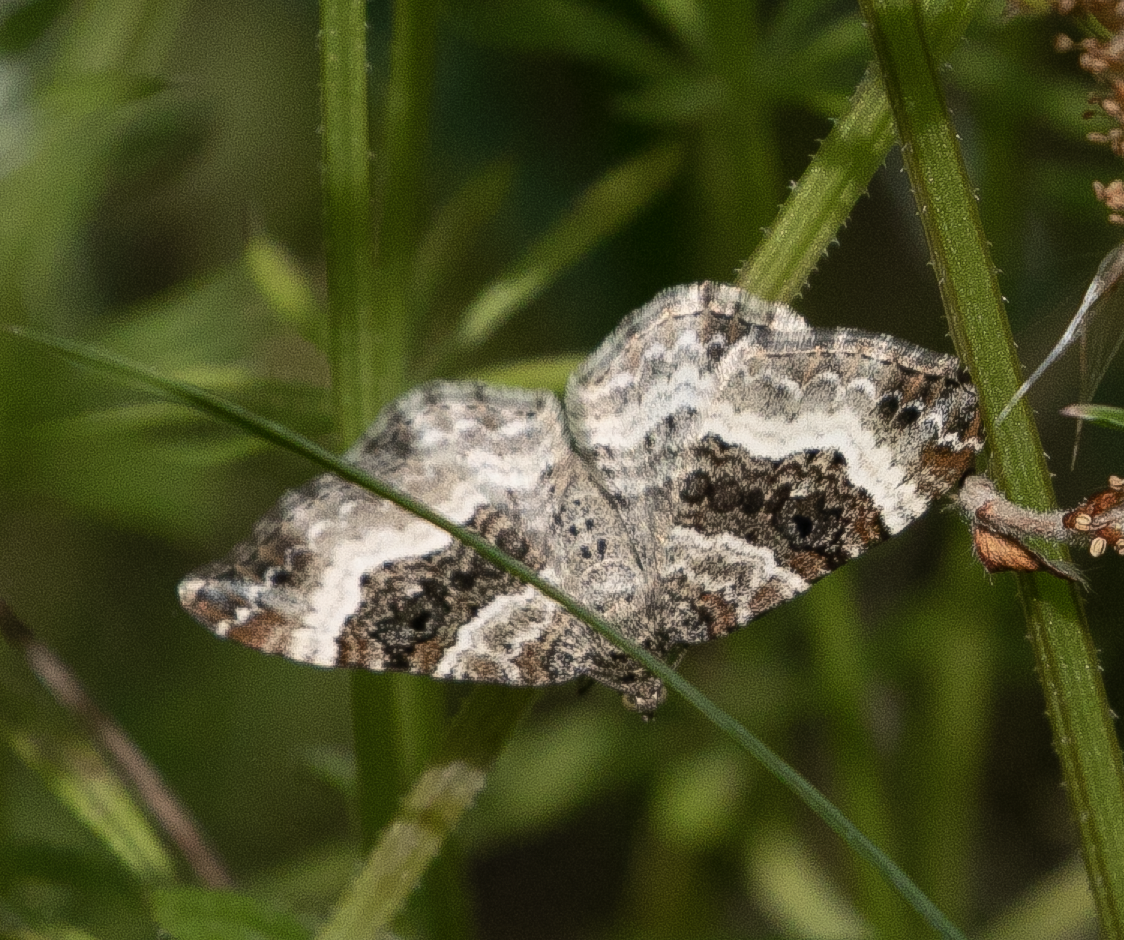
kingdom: Animalia
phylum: Arthropoda
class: Insecta
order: Lepidoptera
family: Geometridae
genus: Epirrhoe
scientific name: Epirrhoe alternata
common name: Common carpet
